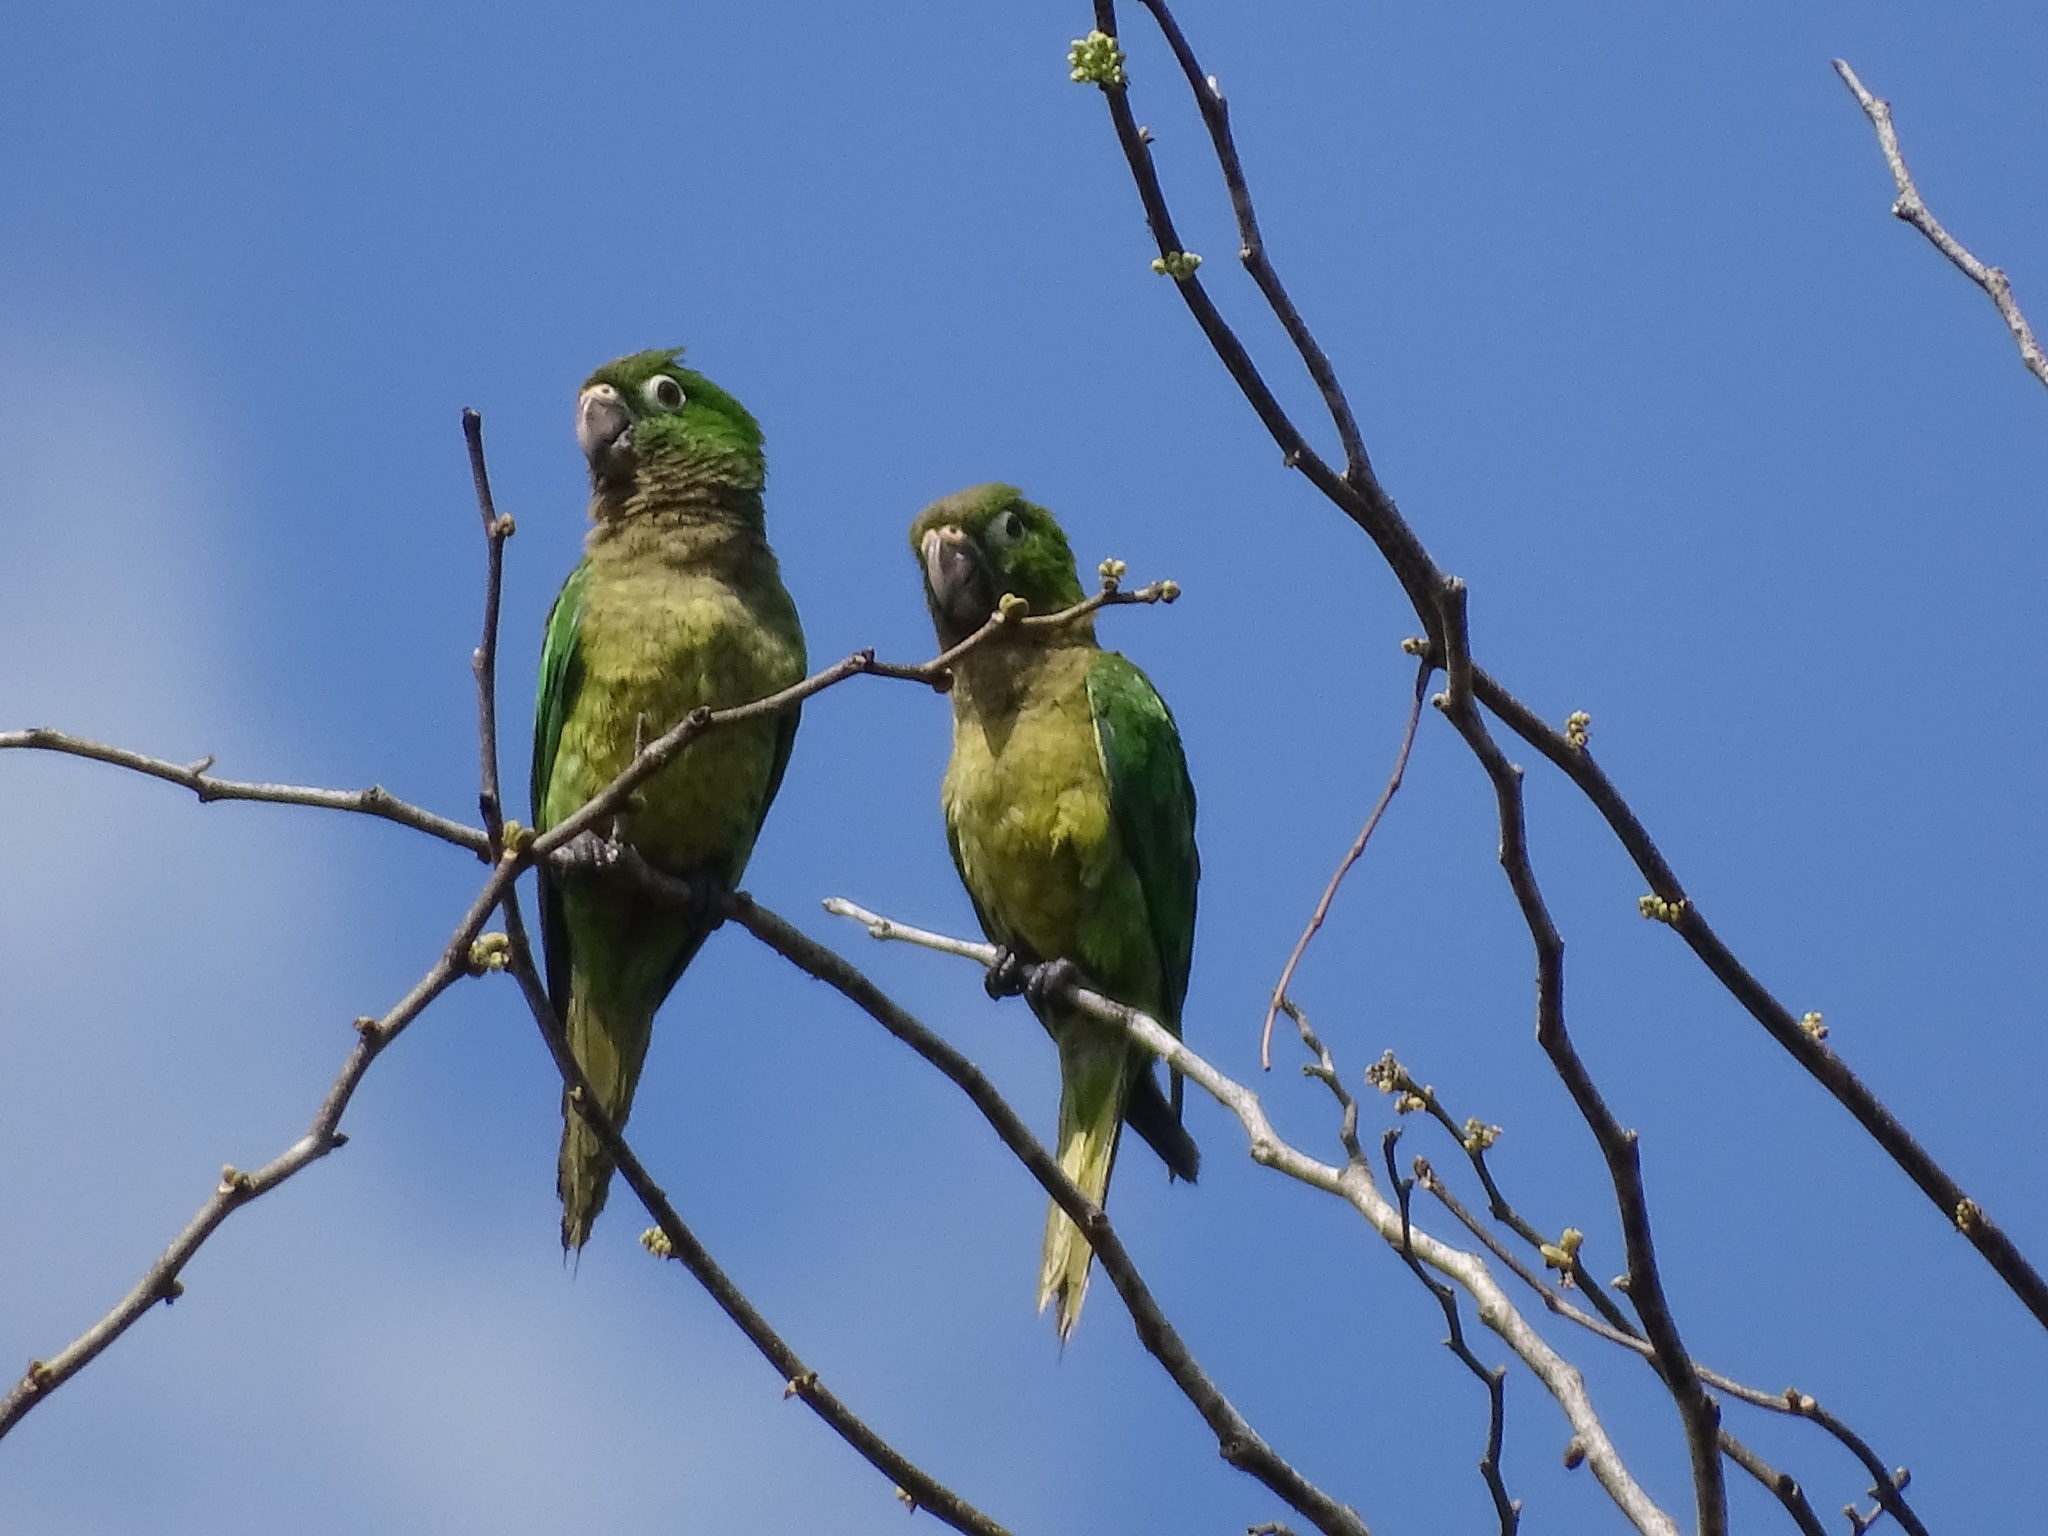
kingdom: Animalia
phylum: Chordata
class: Aves
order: Psittaciformes
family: Psittacidae
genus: Aratinga
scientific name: Aratinga nana
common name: Olive-throated parakeet
